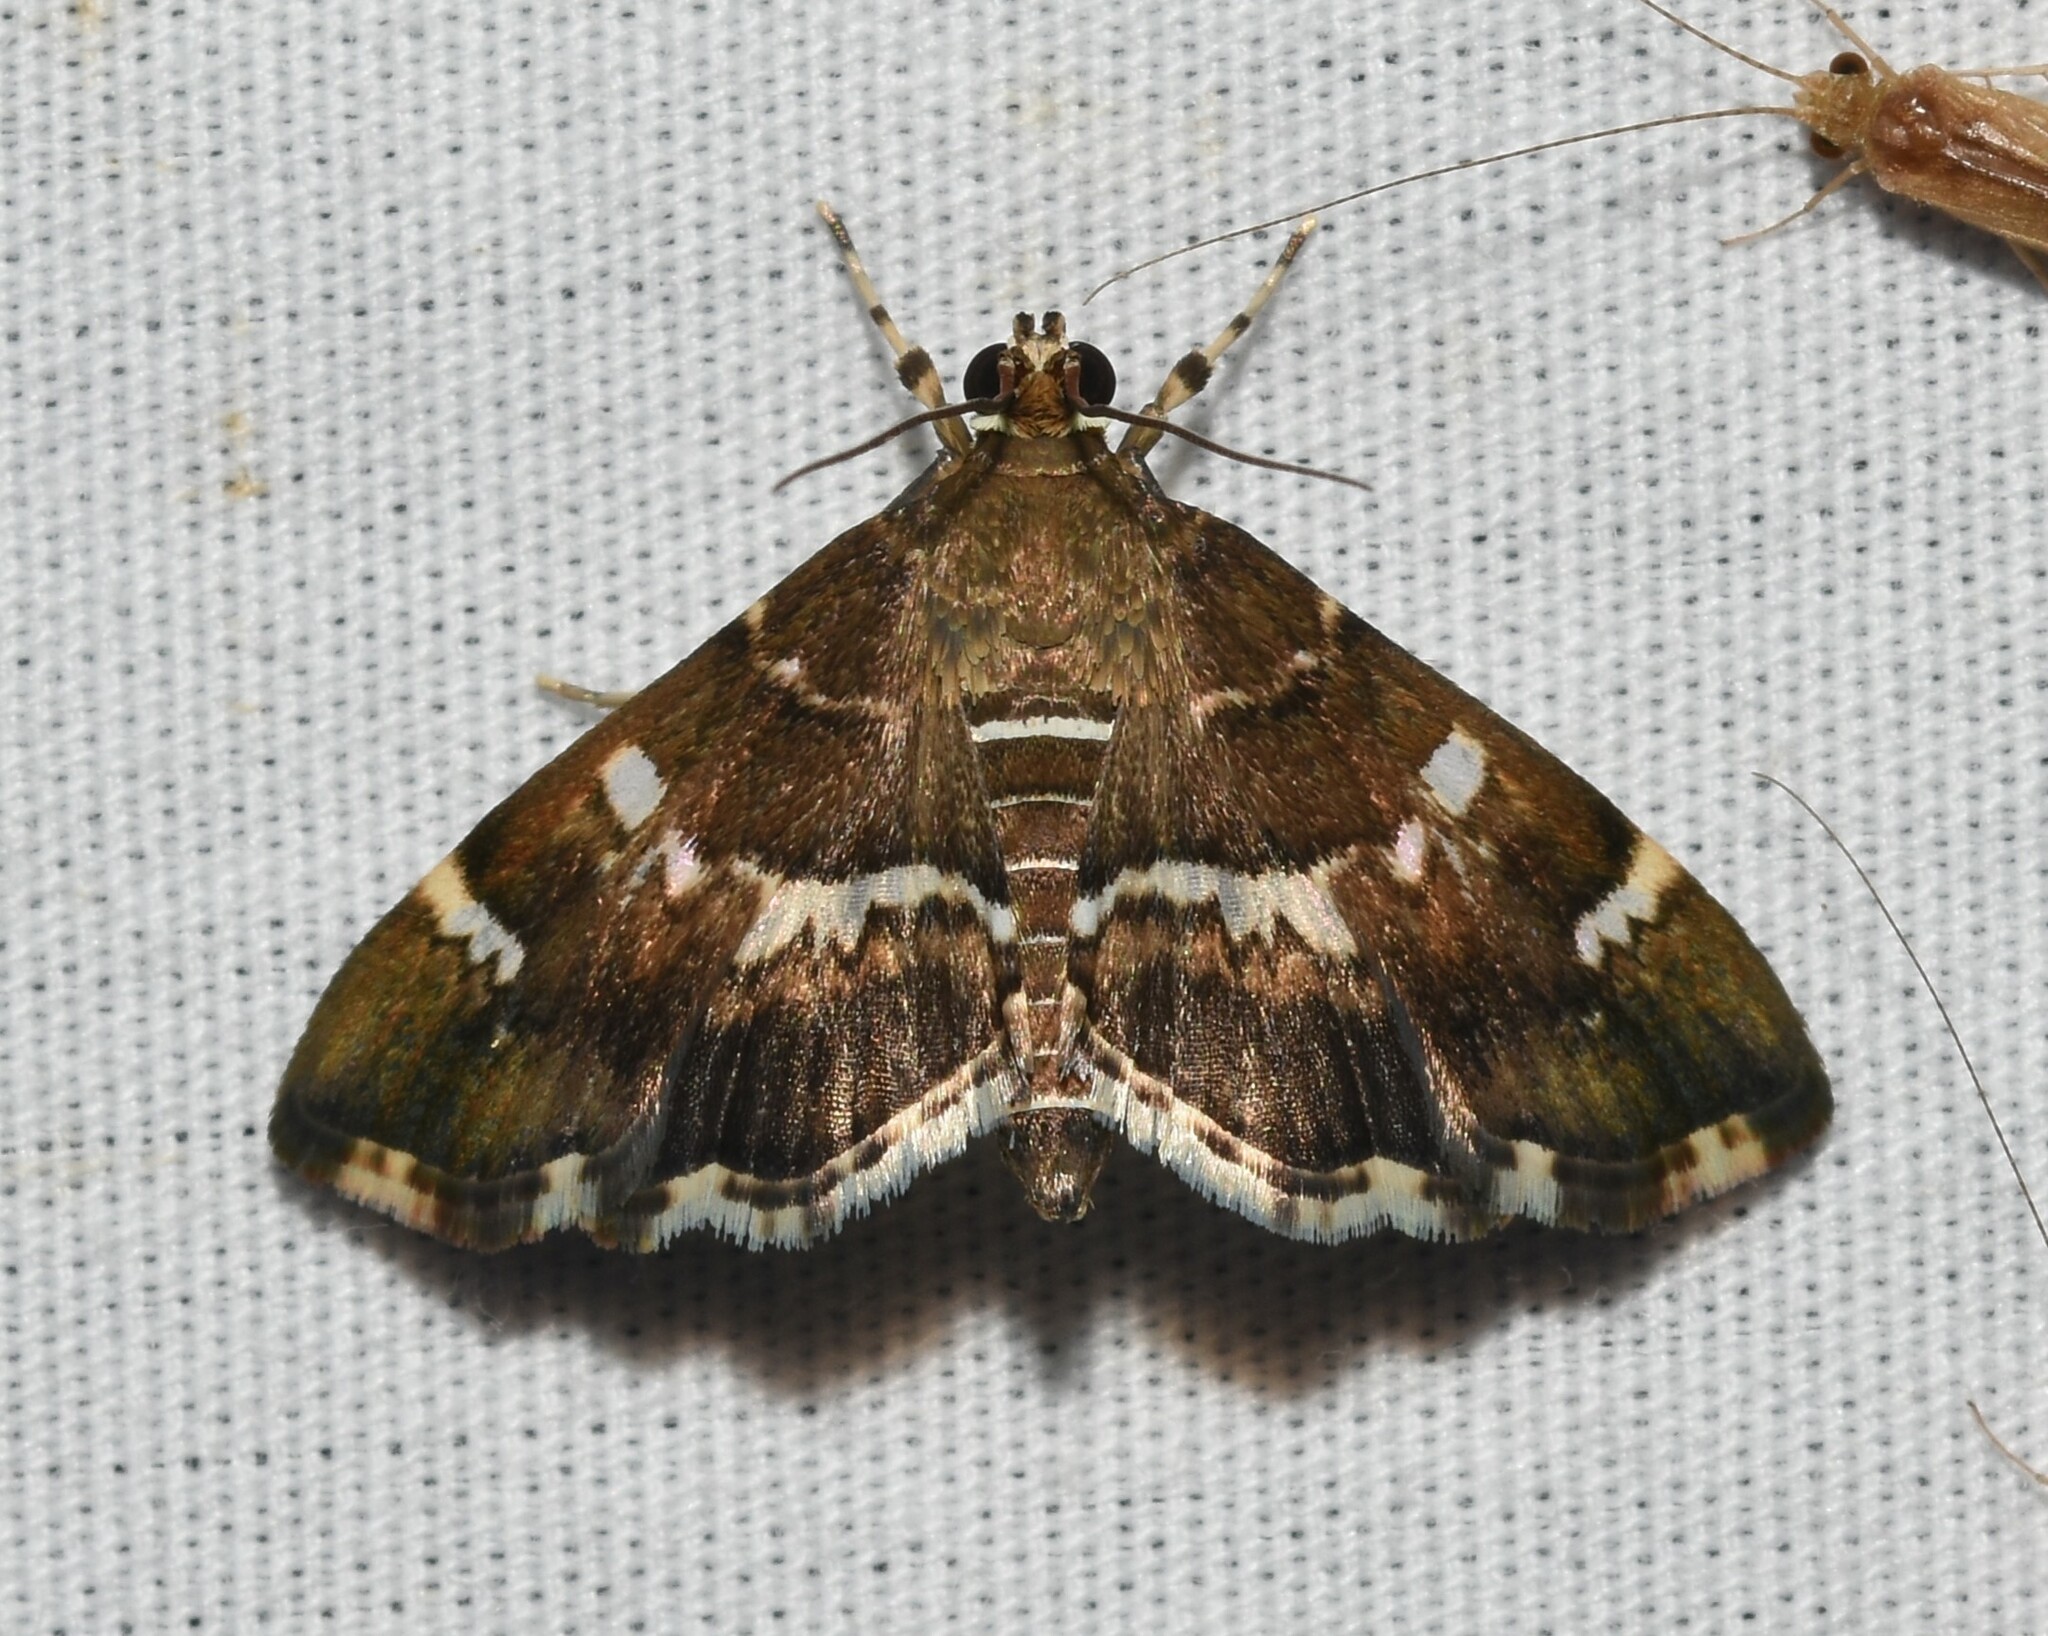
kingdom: Animalia
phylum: Arthropoda
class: Insecta
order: Lepidoptera
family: Crambidae
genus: Hymenia
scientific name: Hymenia perspectalis
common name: Spotted beet webworm
